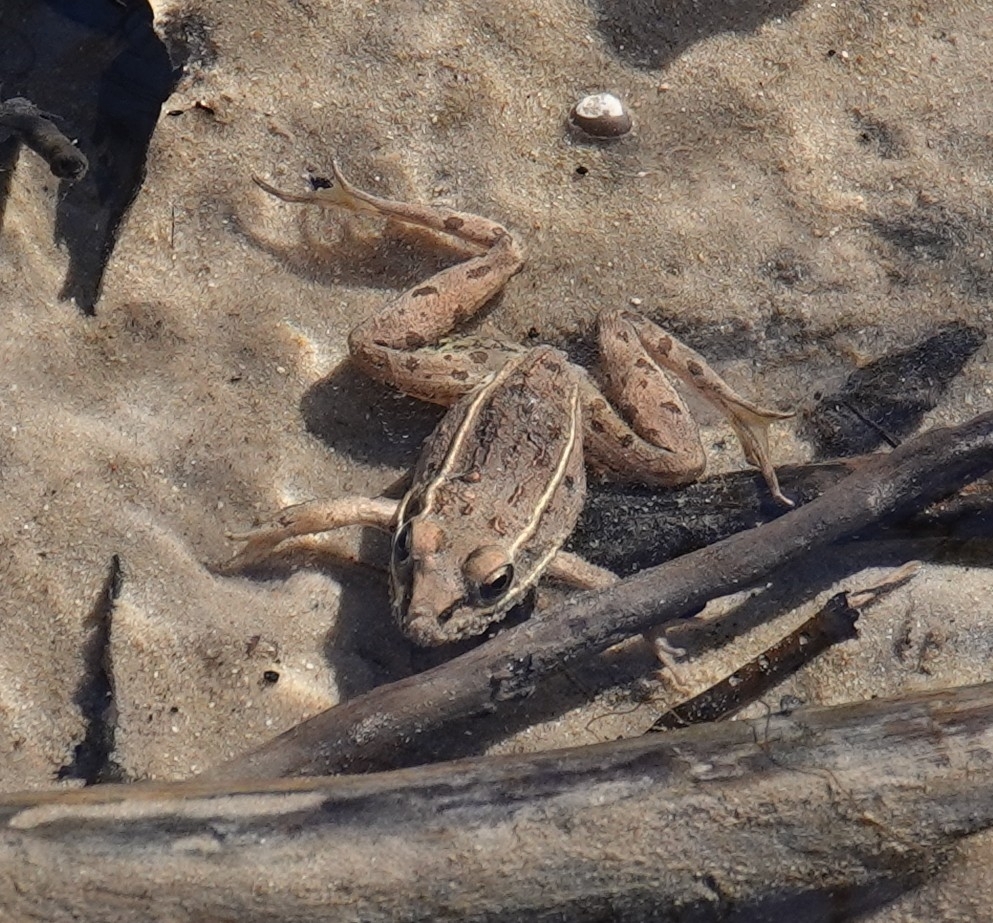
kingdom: Animalia
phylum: Chordata
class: Amphibia
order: Anura
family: Ranidae
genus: Lithobates
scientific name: Lithobates sphenocephalus
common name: Southern leopard frog
